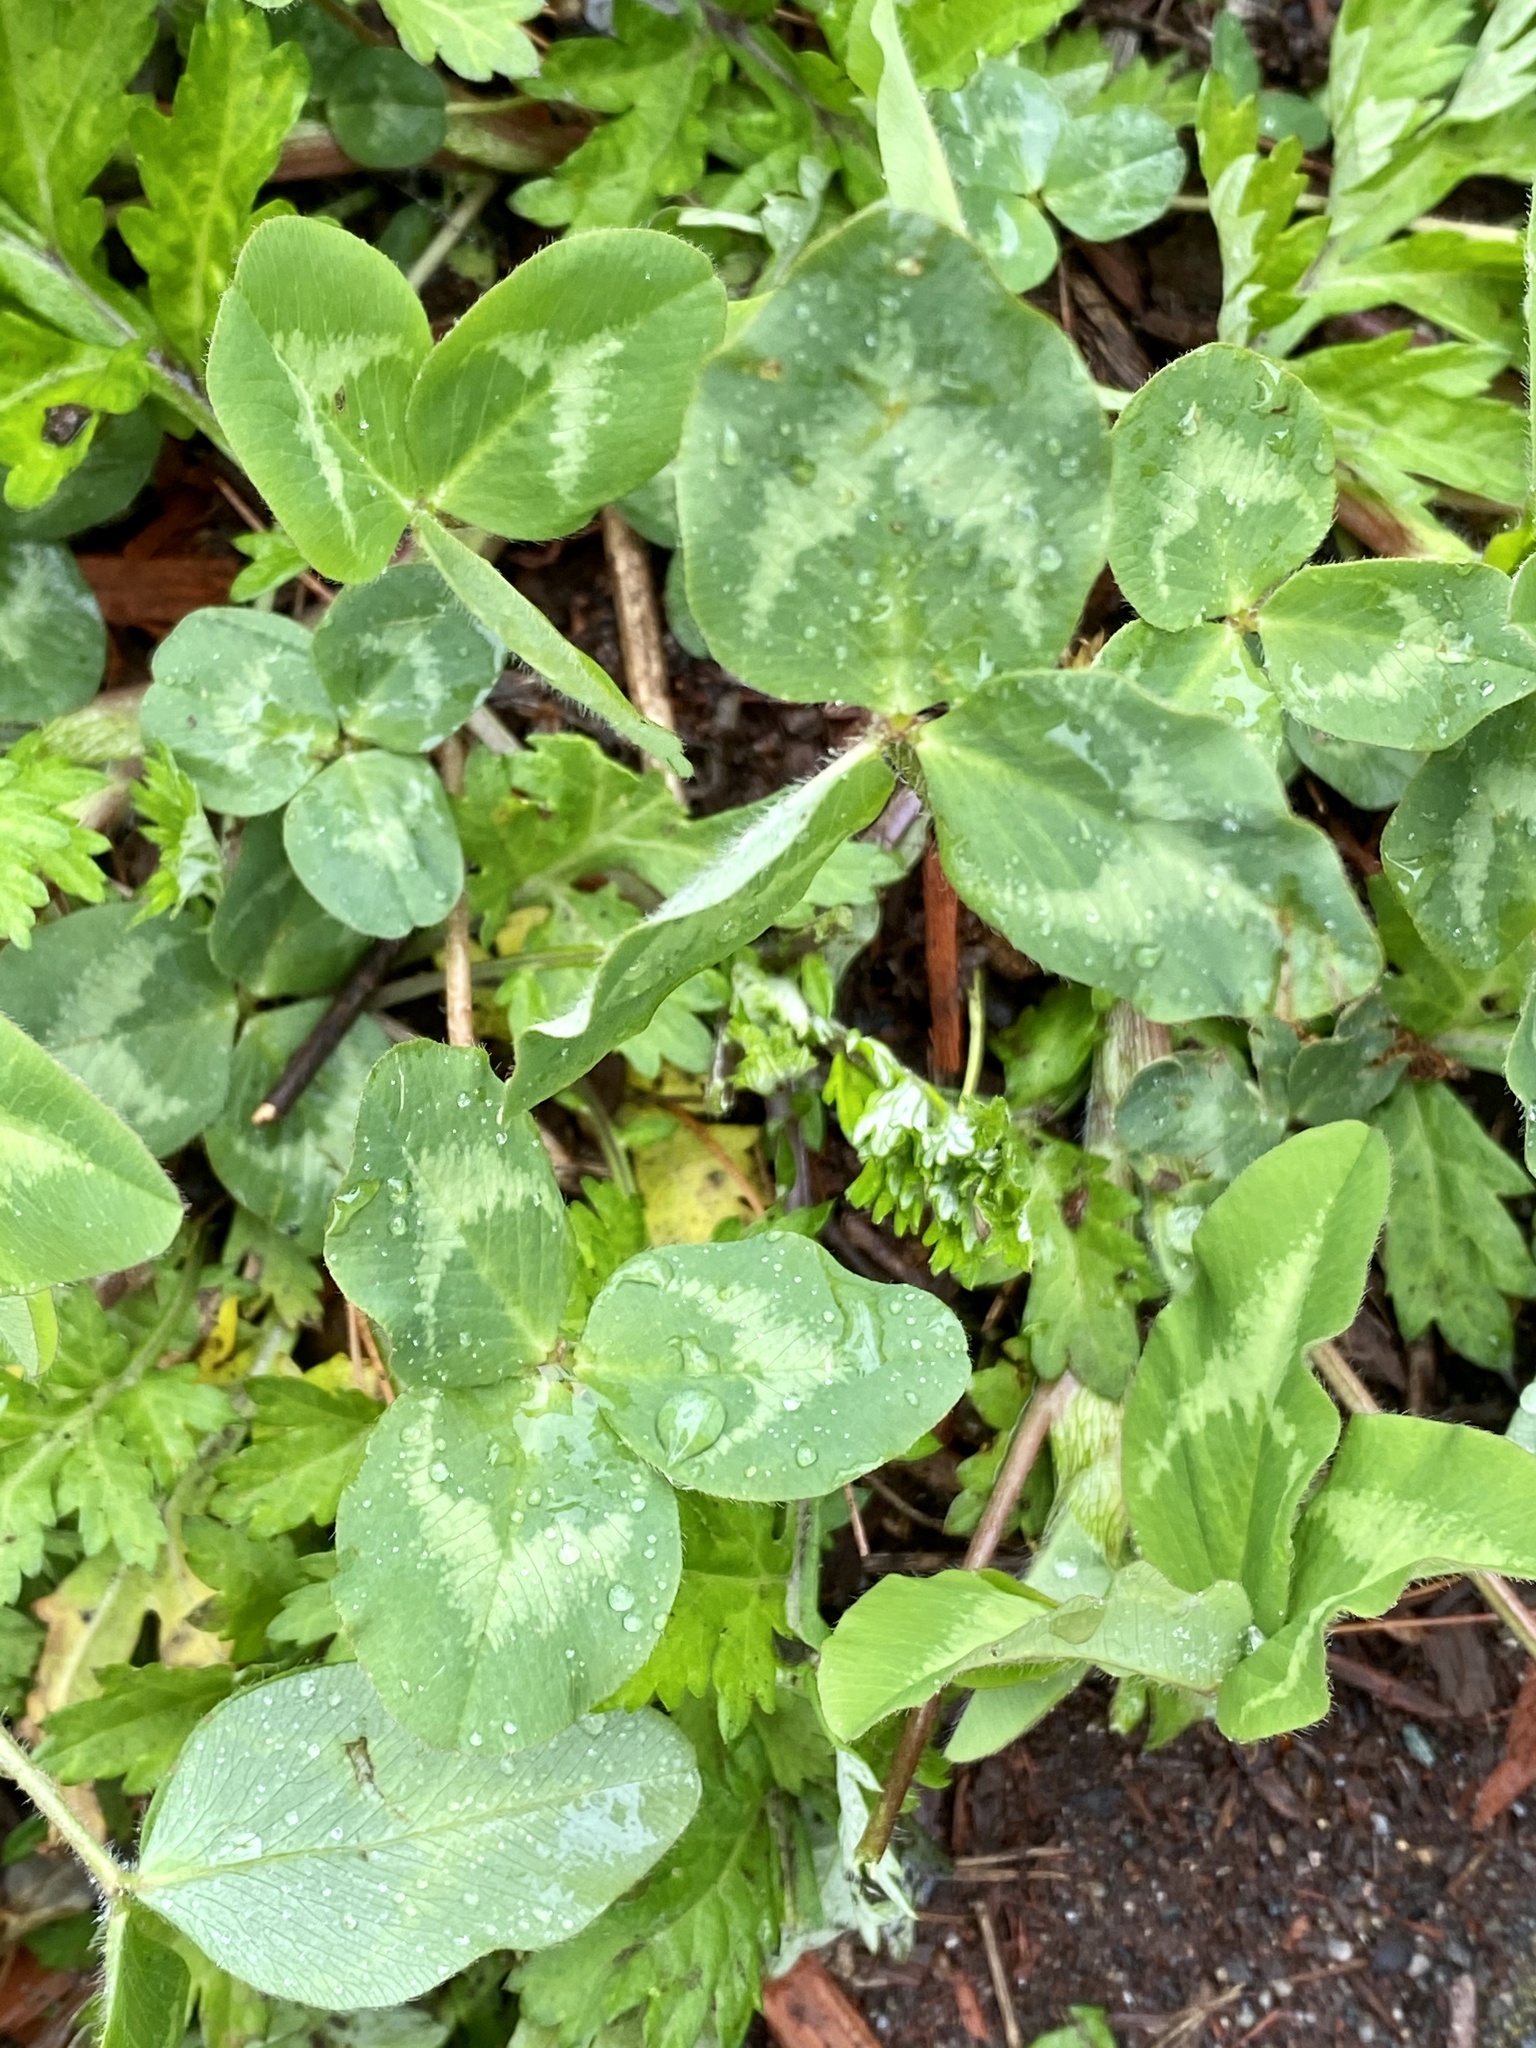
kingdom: Plantae
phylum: Tracheophyta
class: Magnoliopsida
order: Fabales
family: Fabaceae
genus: Trifolium
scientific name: Trifolium pratense
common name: Red clover
